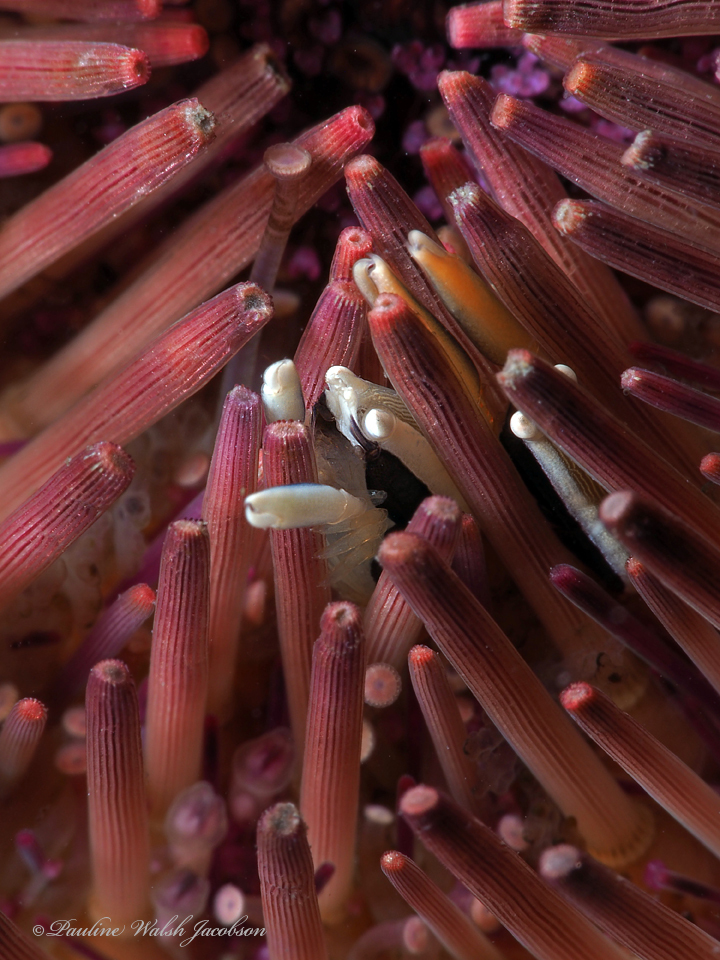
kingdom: Animalia
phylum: Arthropoda
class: Malacostraca
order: Decapoda
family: Palaemonidae
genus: Gnathophylloides
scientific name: Gnathophylloides mineri
